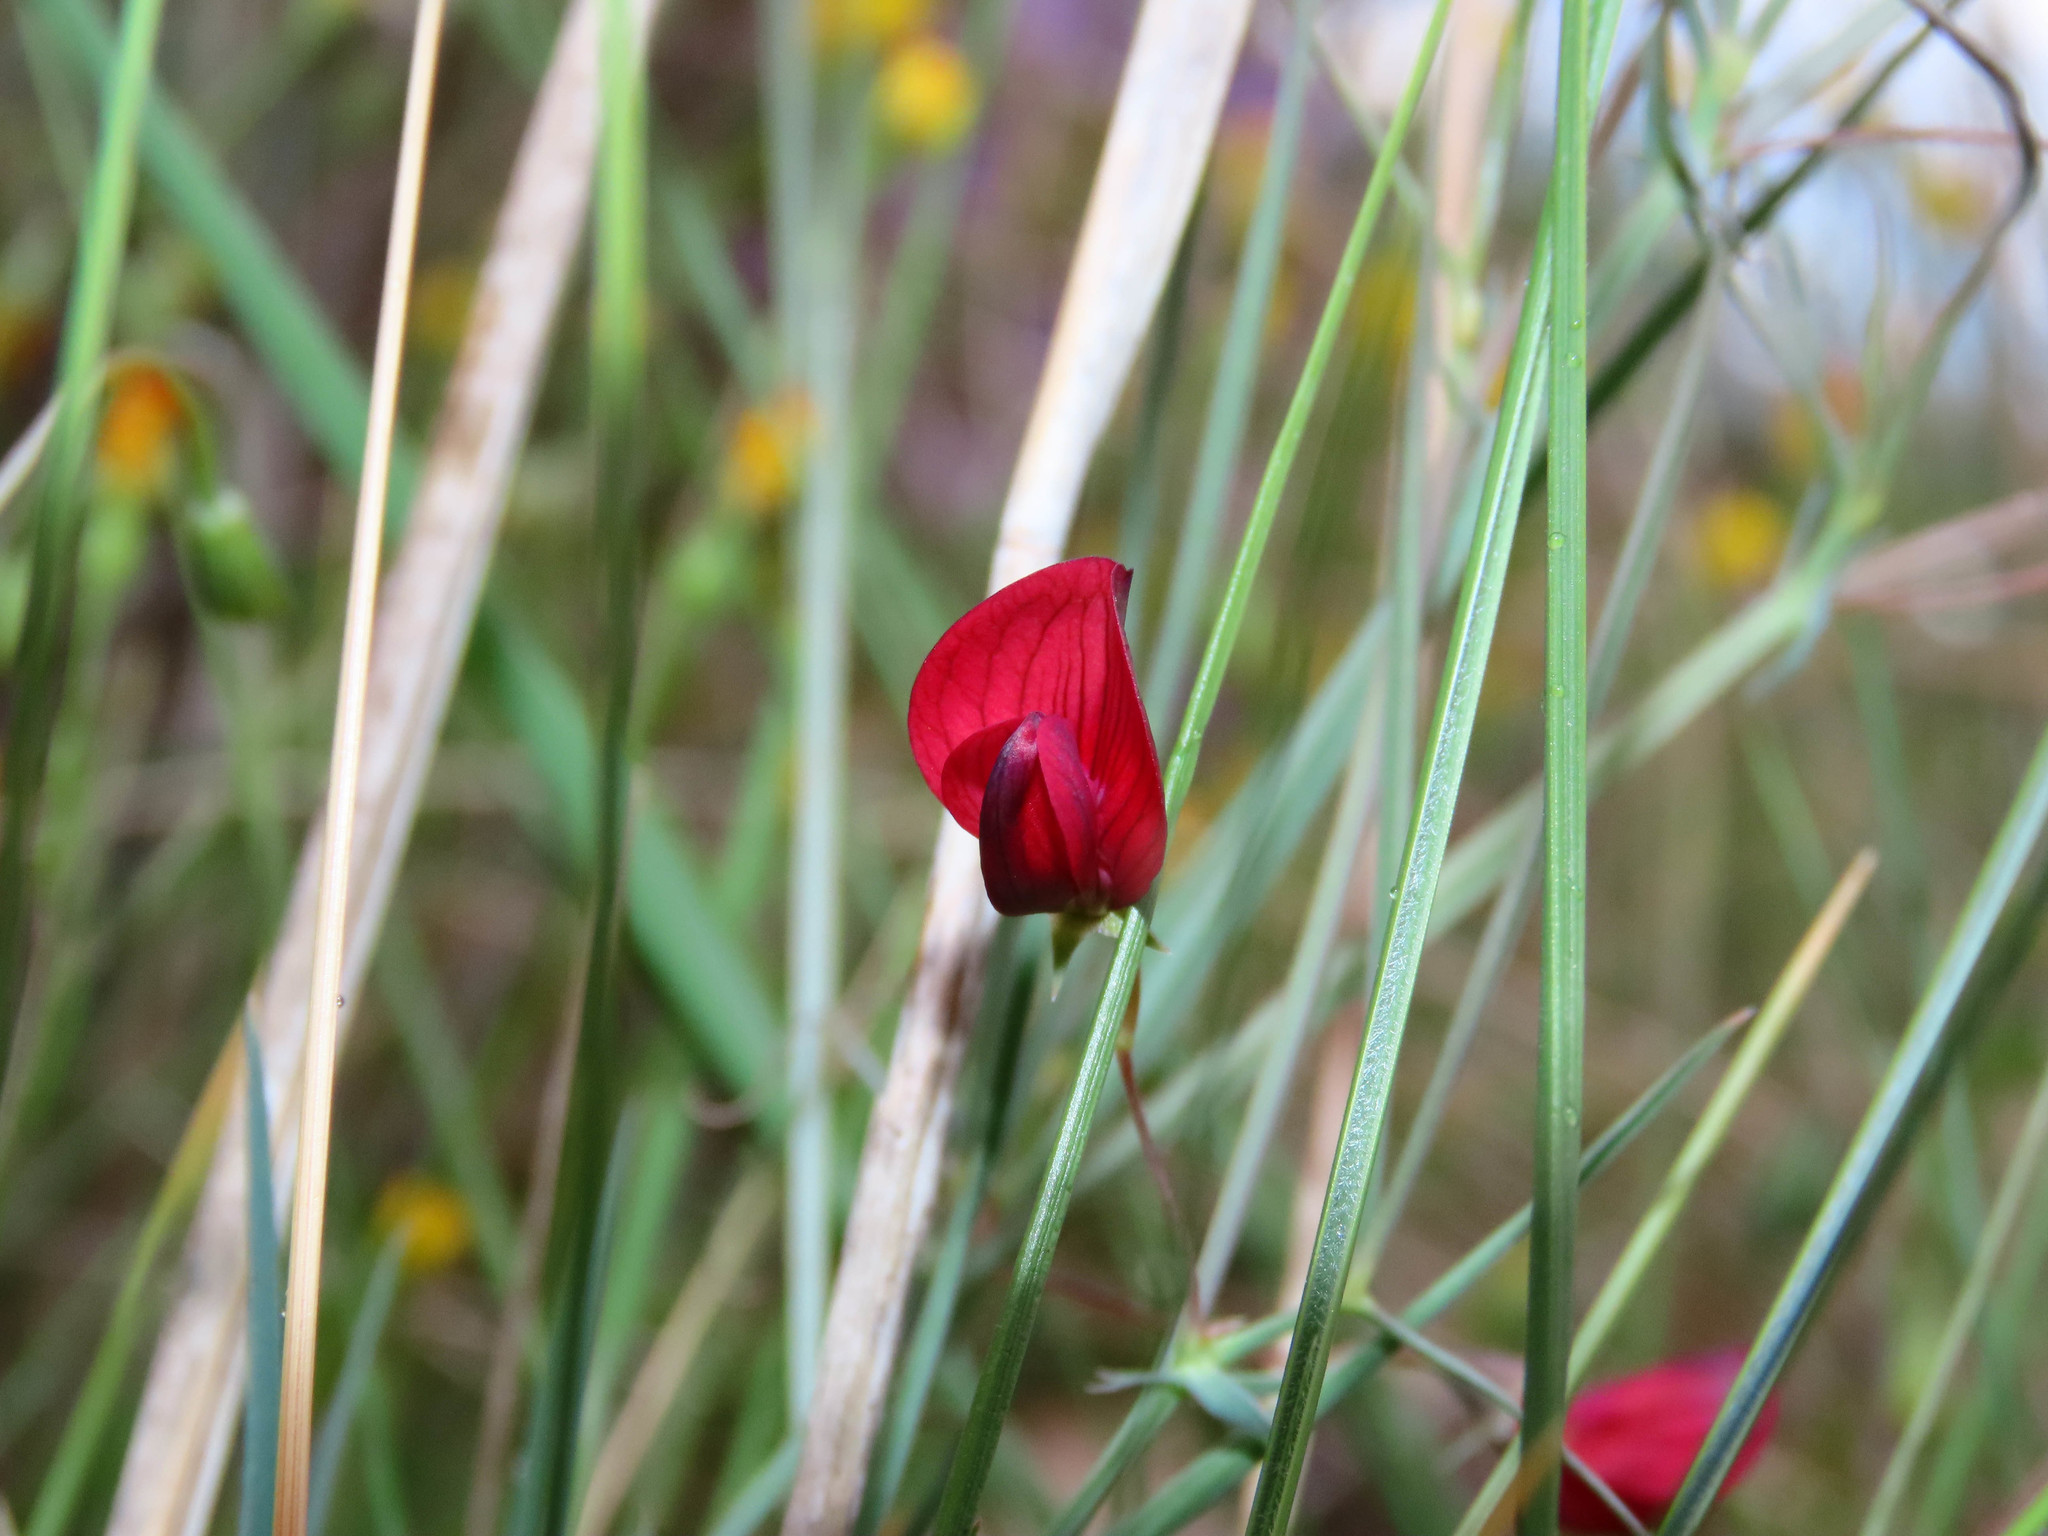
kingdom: Plantae
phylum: Tracheophyta
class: Magnoliopsida
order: Fabales
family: Fabaceae
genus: Lathyrus
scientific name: Lathyrus cicera
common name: Red vetchling
